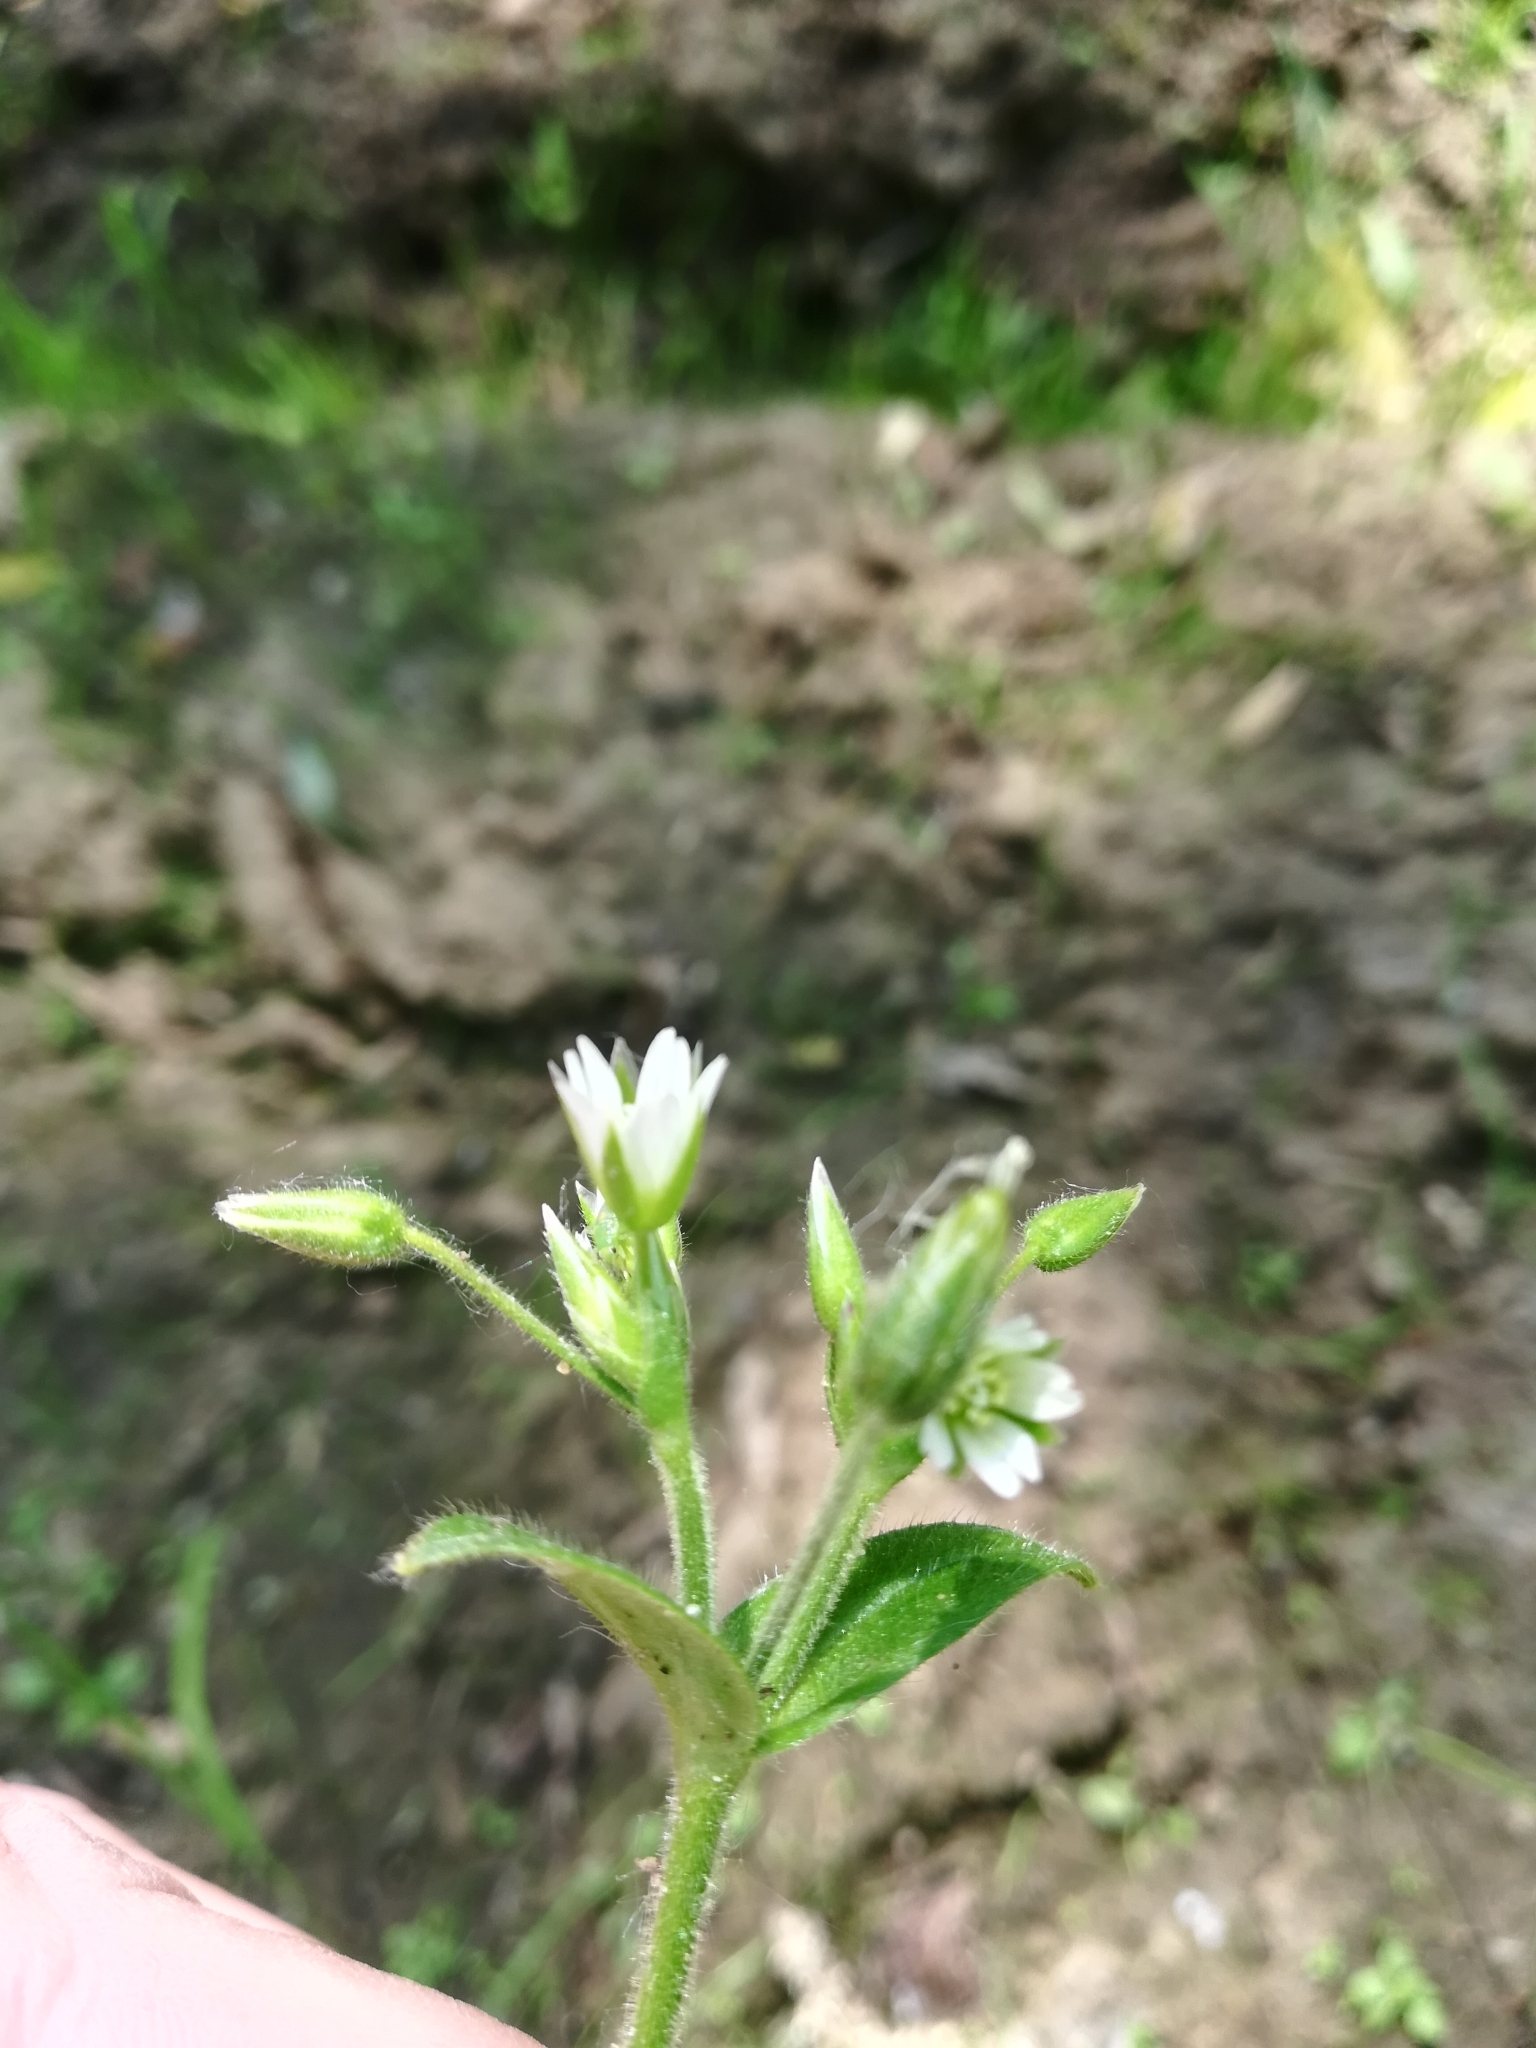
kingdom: Plantae
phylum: Tracheophyta
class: Magnoliopsida
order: Caryophyllales
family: Caryophyllaceae
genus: Cerastium
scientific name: Cerastium holosteoides
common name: Big chickweed
